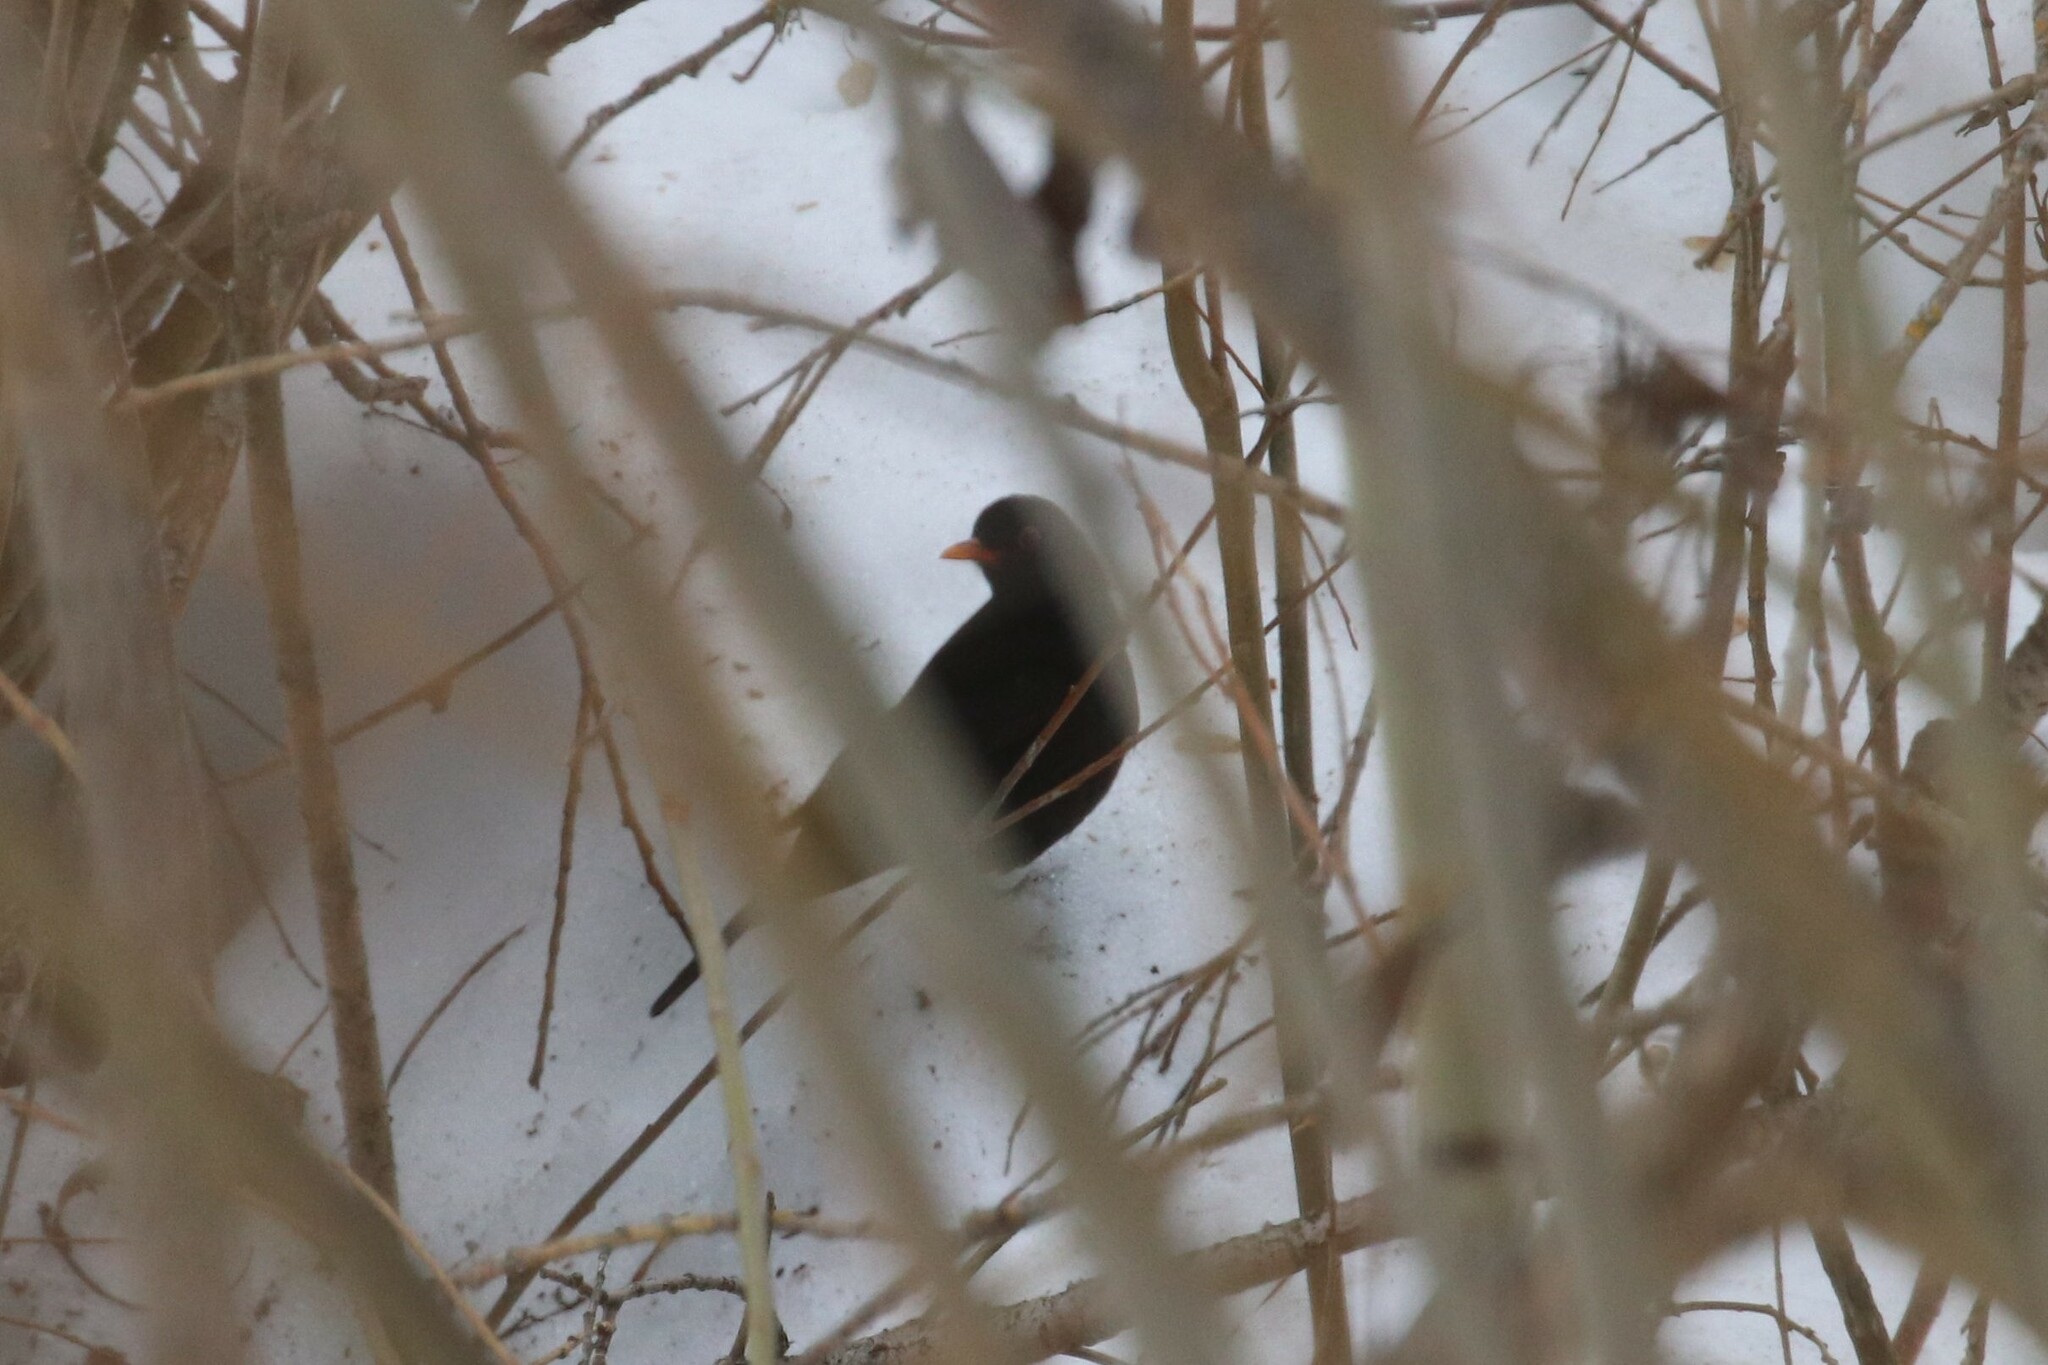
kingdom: Animalia
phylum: Chordata
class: Aves
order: Passeriformes
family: Turdidae
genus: Turdus
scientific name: Turdus merula
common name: Common blackbird
